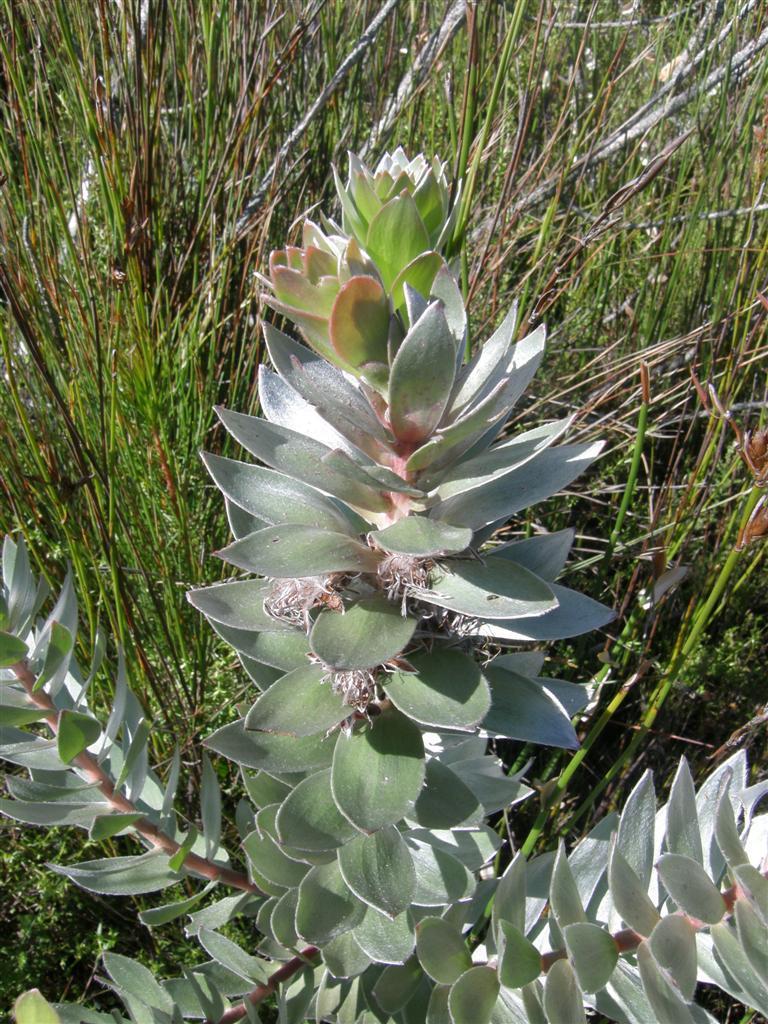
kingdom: Plantae
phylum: Tracheophyta
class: Magnoliopsida
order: Proteales
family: Proteaceae
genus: Mimetes
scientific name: Mimetes argenteus
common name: Silver pagoda
